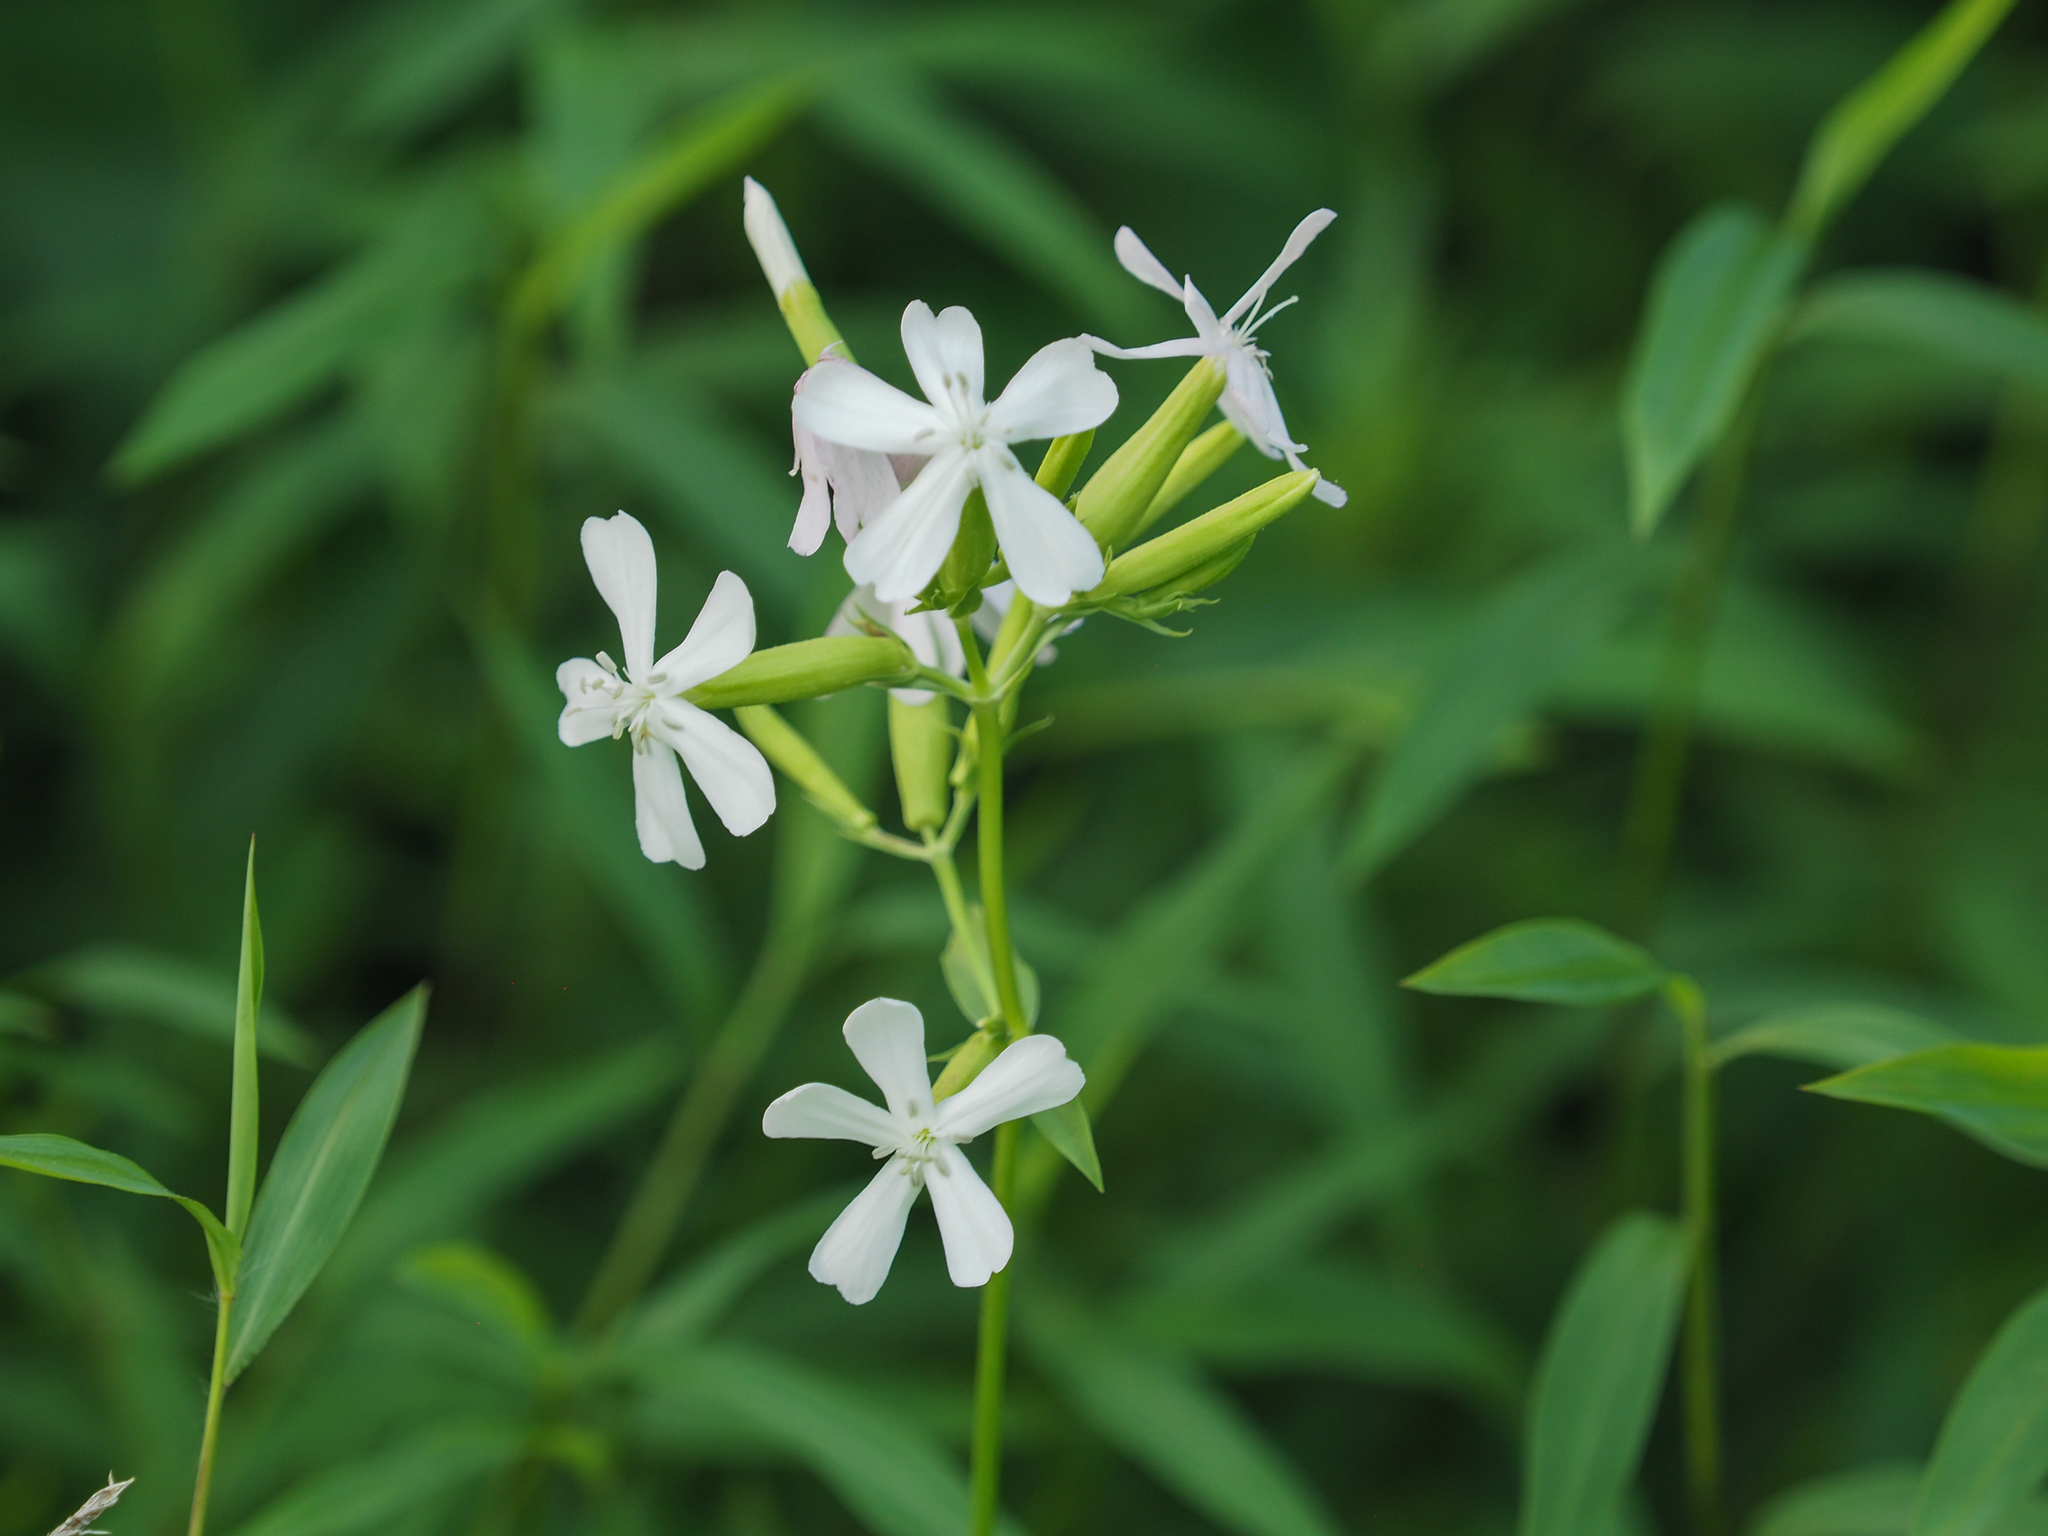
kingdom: Plantae
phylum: Tracheophyta
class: Magnoliopsida
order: Caryophyllales
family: Caryophyllaceae
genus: Saponaria
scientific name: Saponaria officinalis
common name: Soapwort
